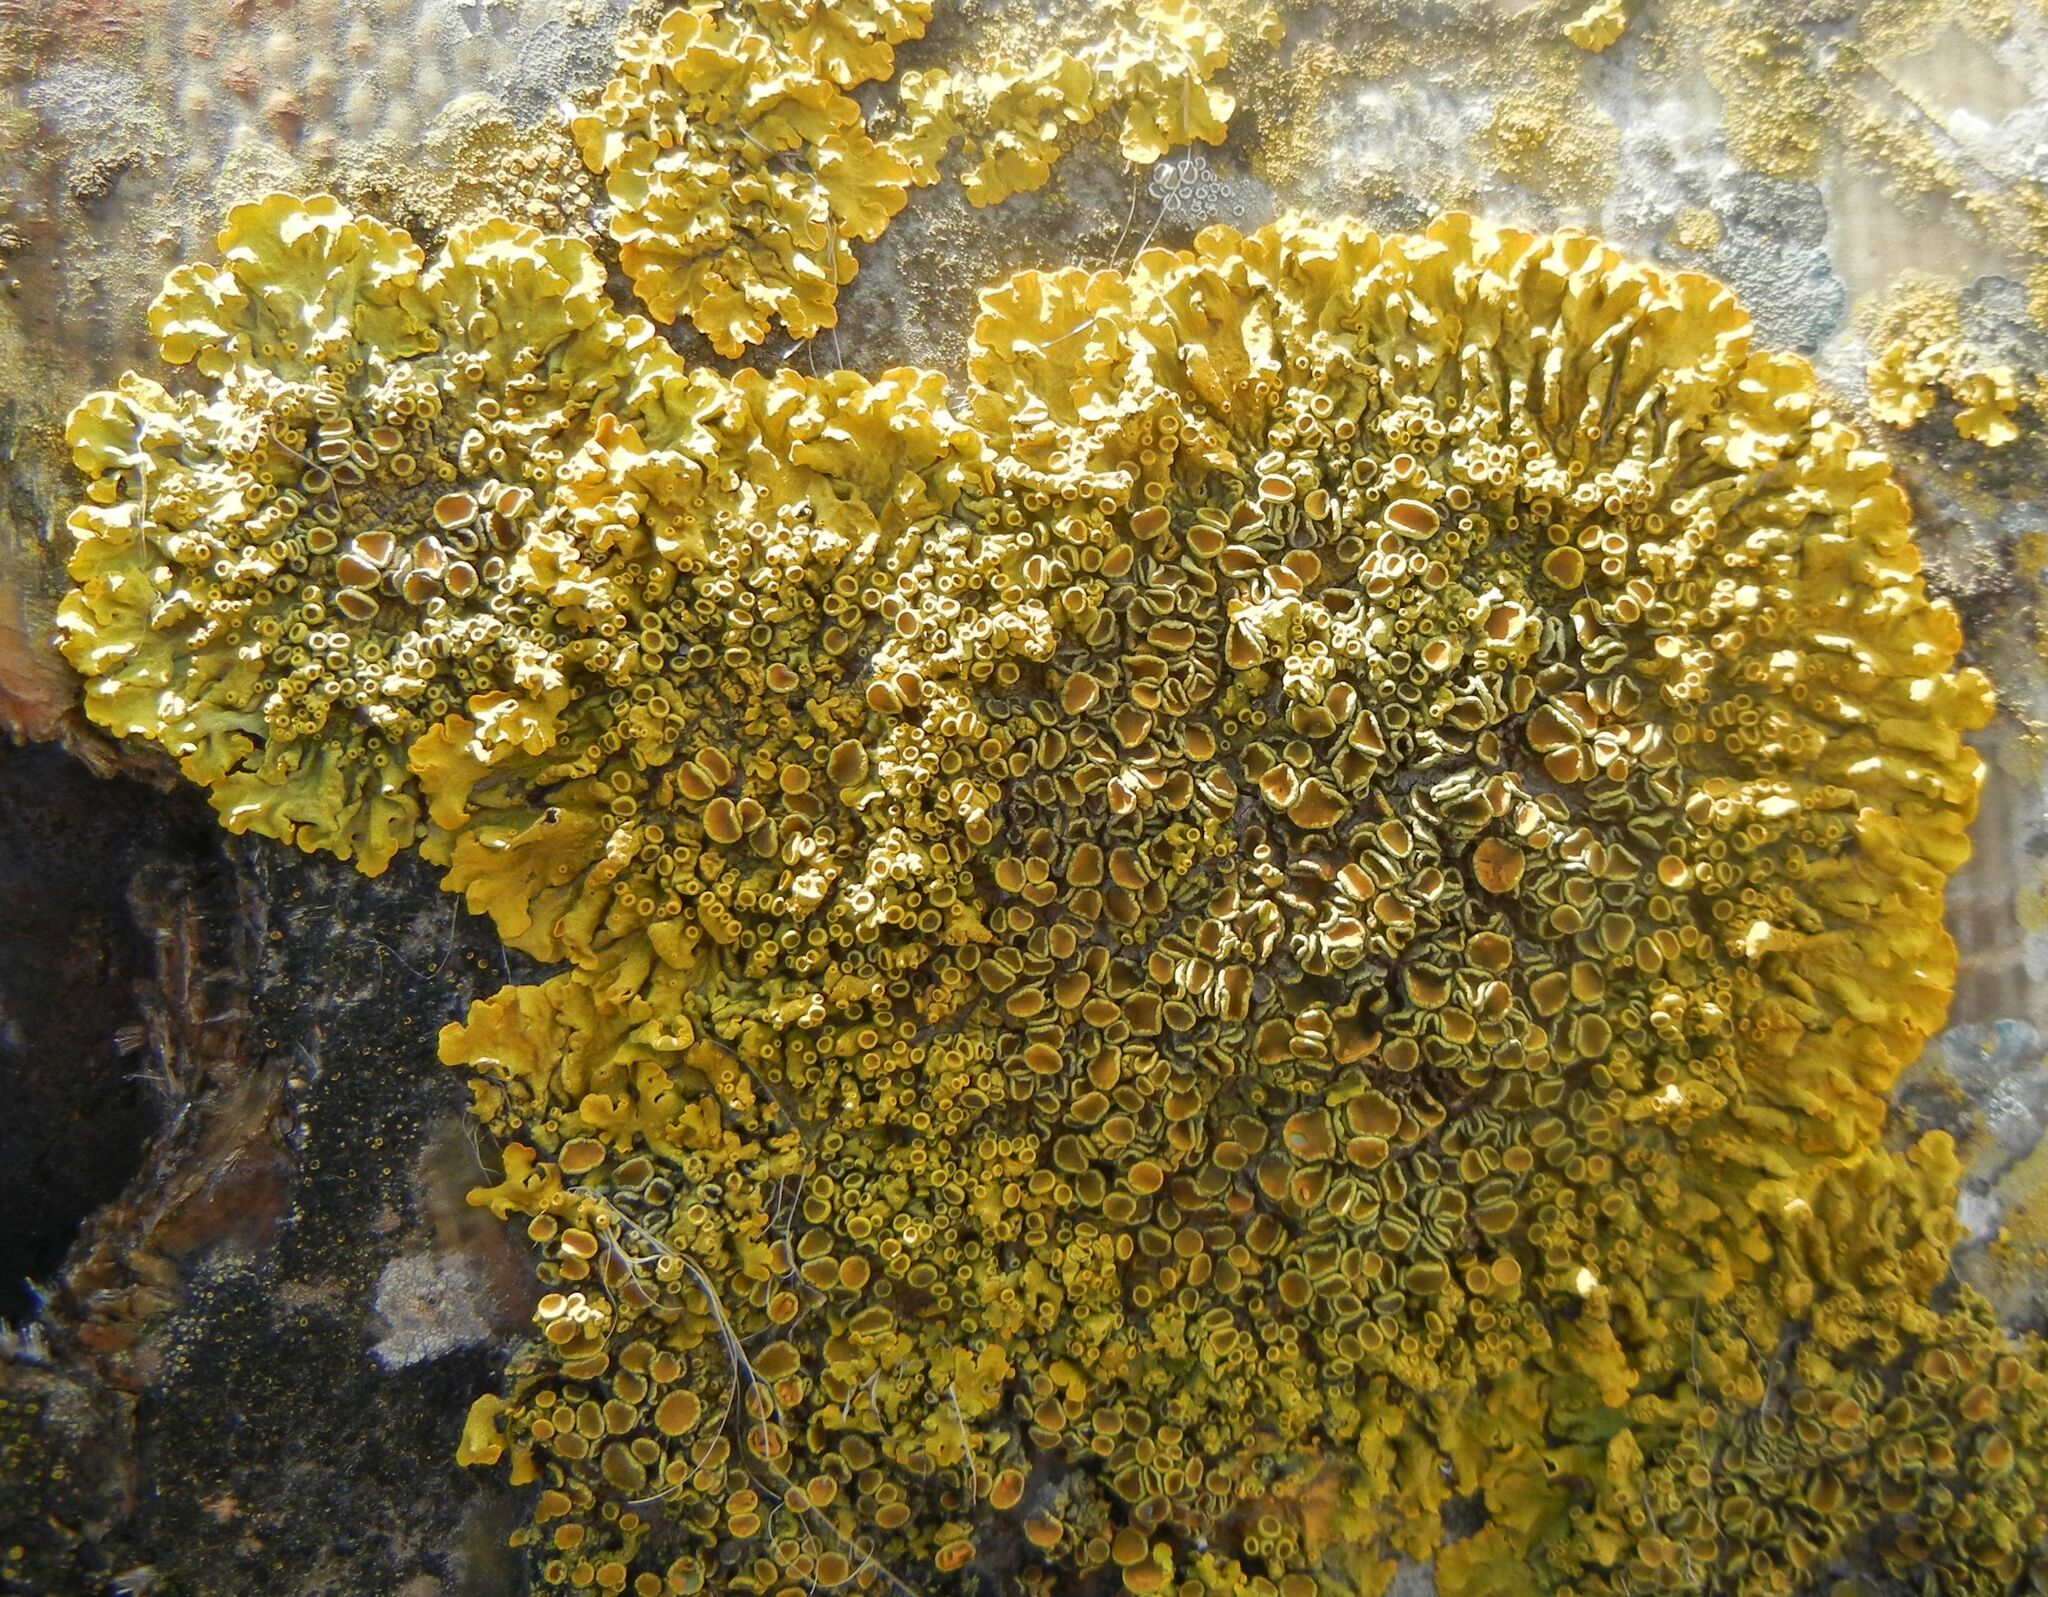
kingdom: Fungi
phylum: Ascomycota
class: Lecanoromycetes
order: Teloschistales
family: Teloschistaceae
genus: Xanthoria
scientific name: Xanthoria parietina
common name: Common orange lichen
